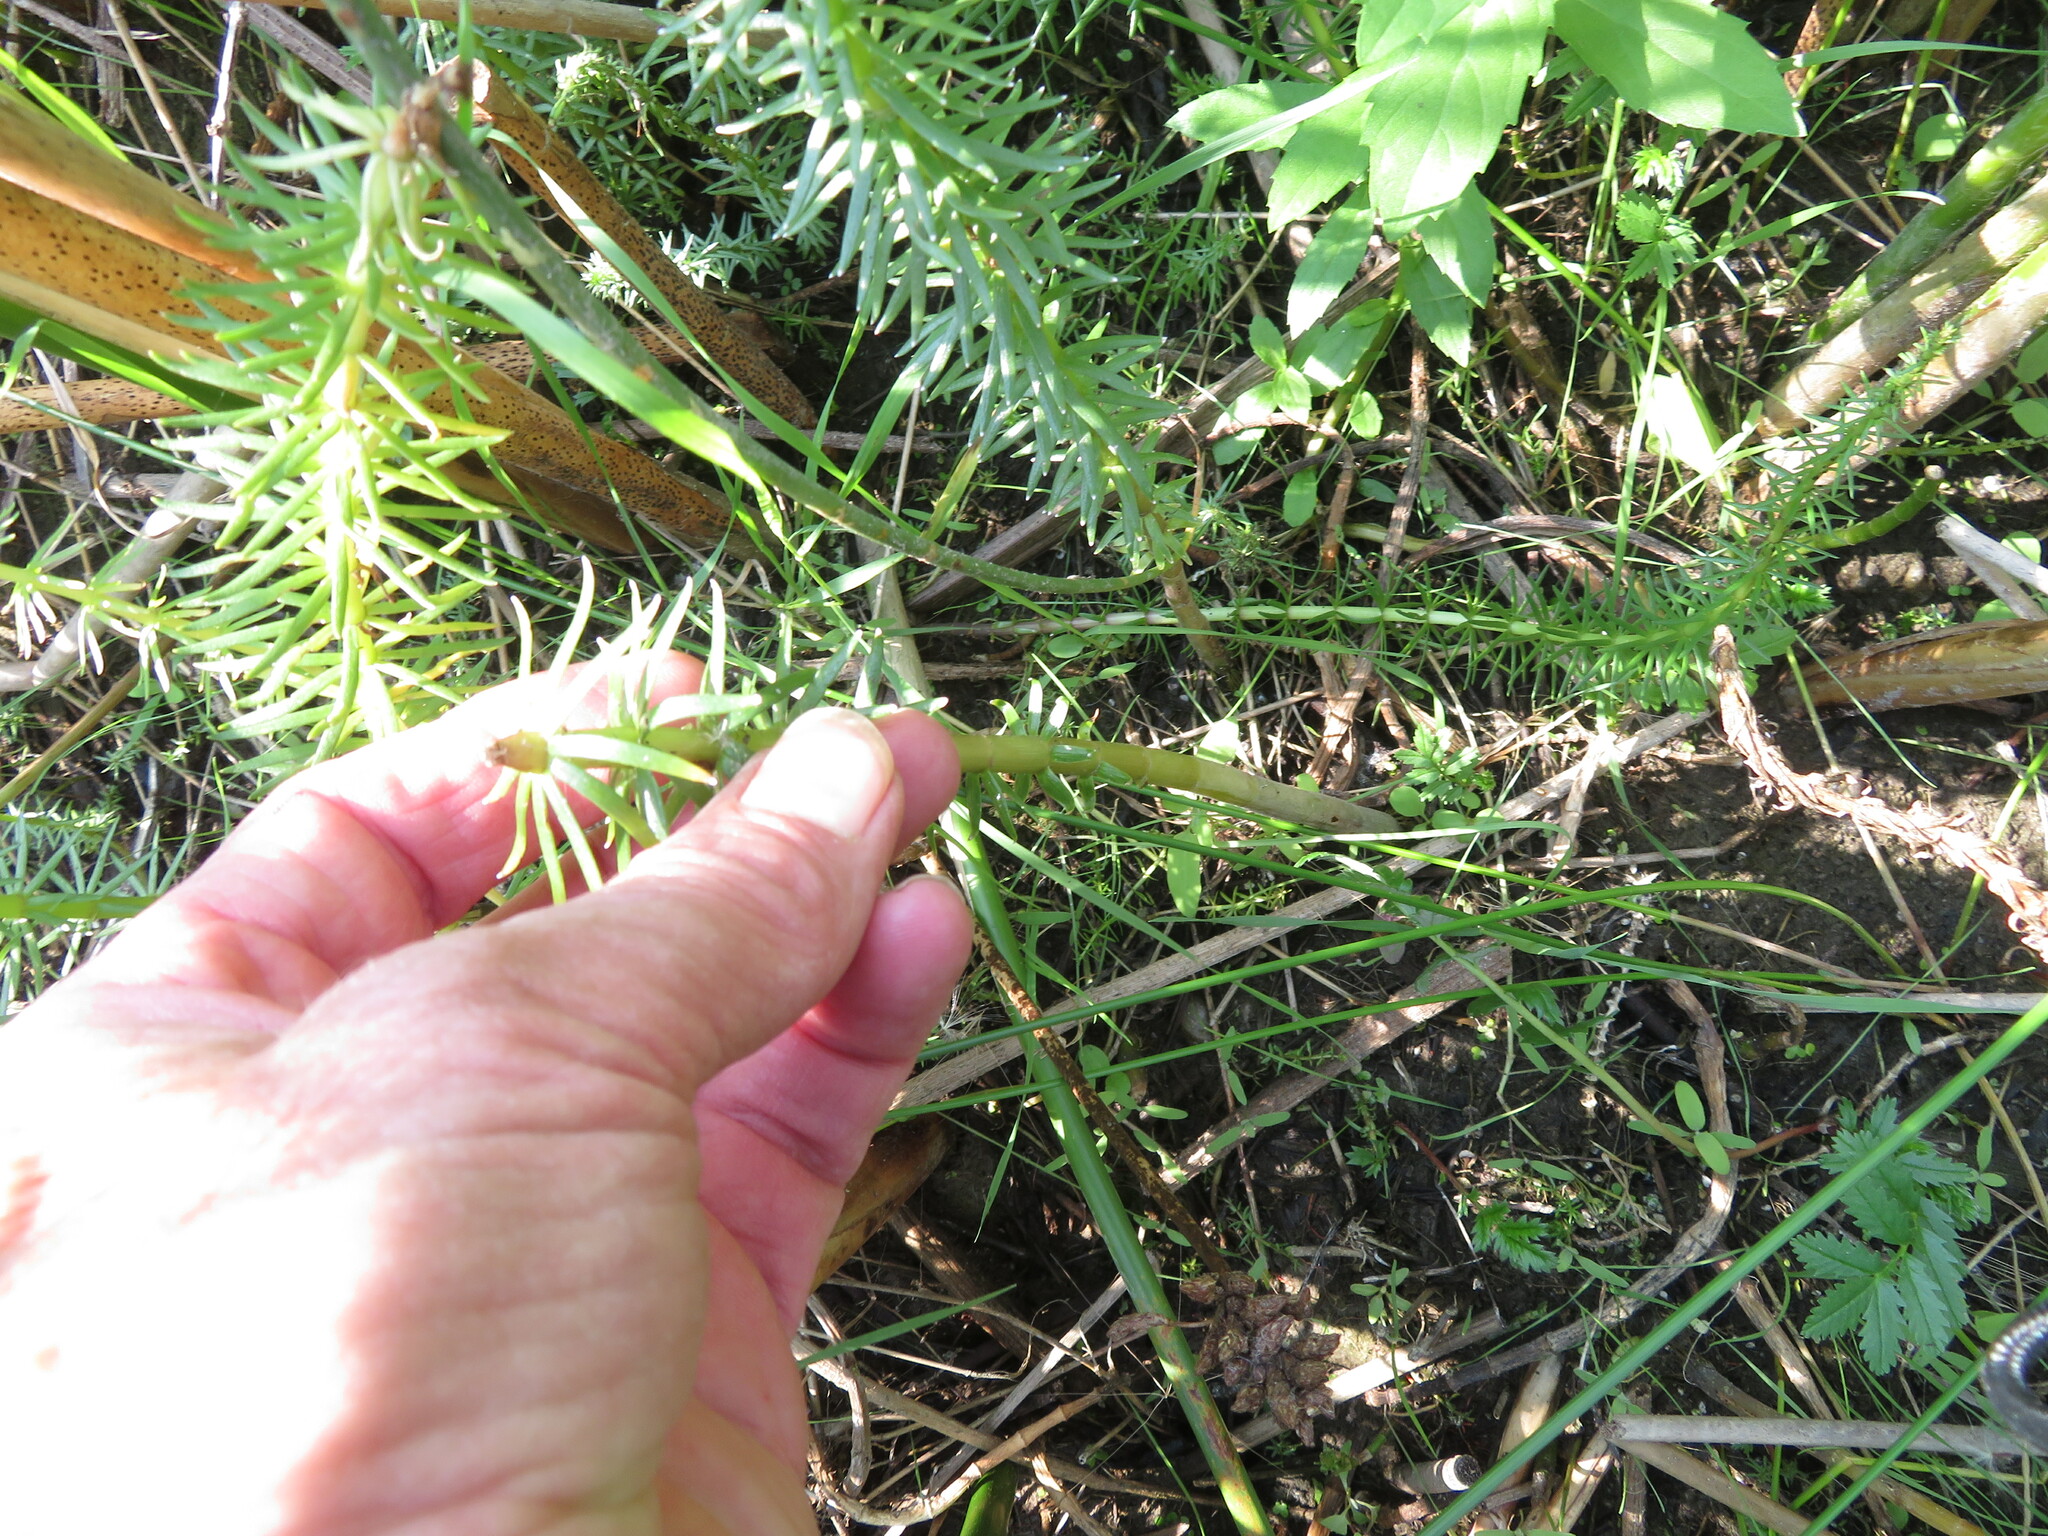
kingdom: Plantae
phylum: Tracheophyta
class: Magnoliopsida
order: Lamiales
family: Plantaginaceae
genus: Hippuris
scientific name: Hippuris vulgaris
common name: Mare's-tail
